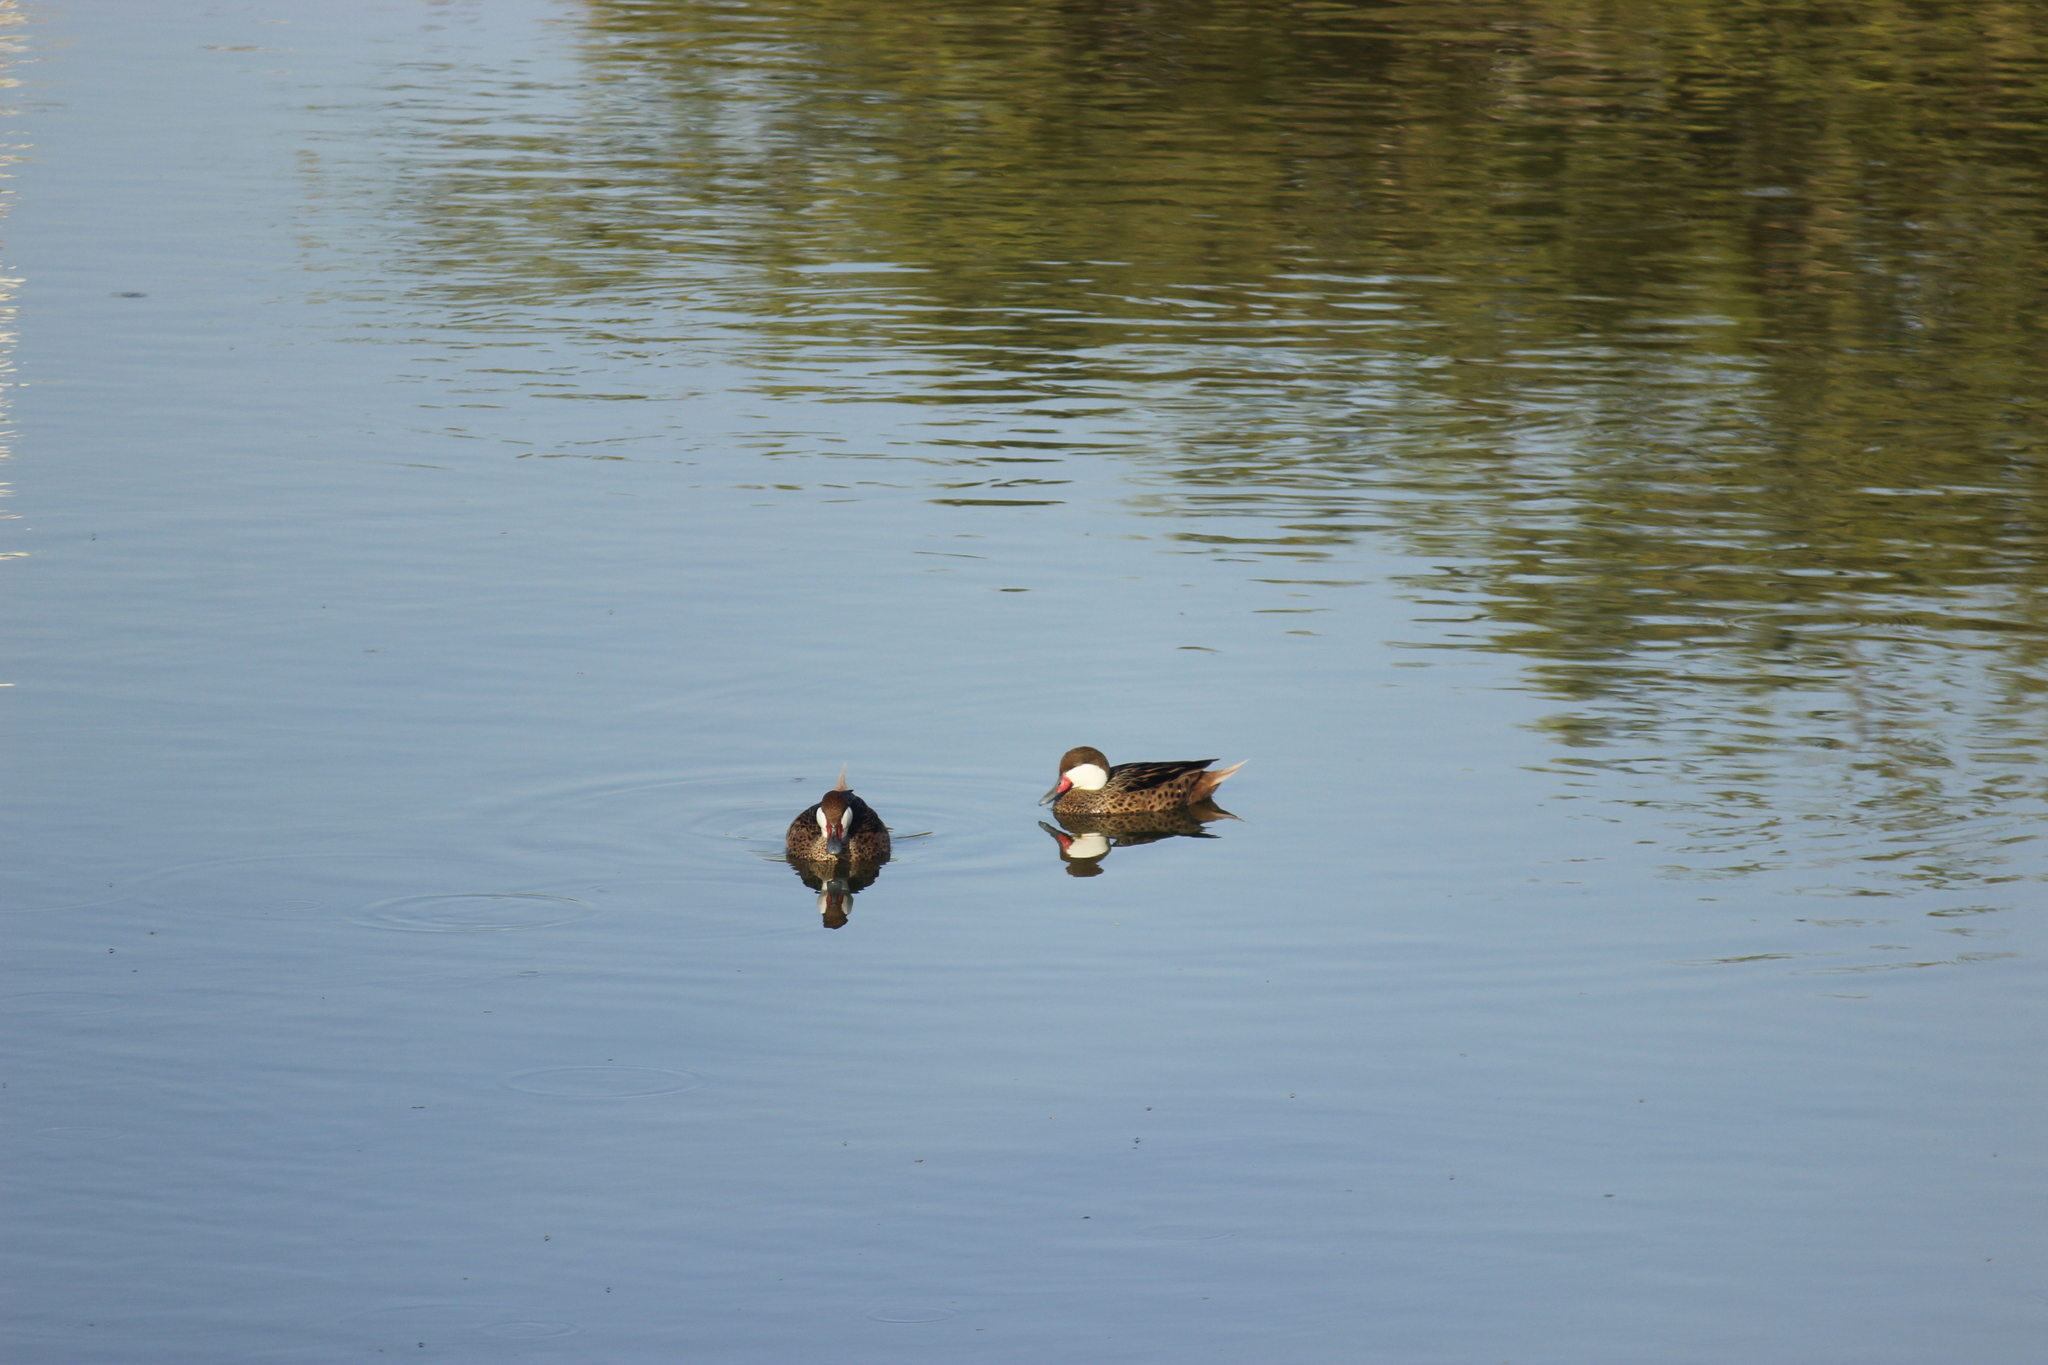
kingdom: Animalia
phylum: Chordata
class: Aves
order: Anseriformes
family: Anatidae
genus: Anas
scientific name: Anas bahamensis
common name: White-cheeked pintail
